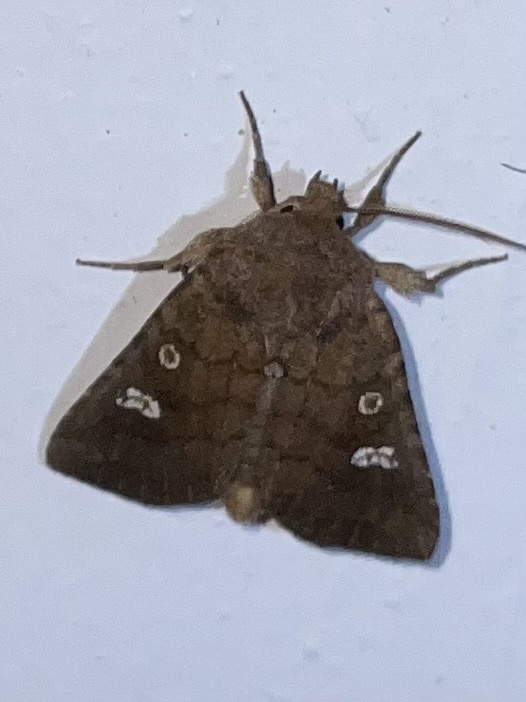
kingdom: Animalia
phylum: Arthropoda
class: Insecta
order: Lepidoptera
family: Noctuidae
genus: Tricholita
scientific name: Tricholita signata
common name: Signate quaker
